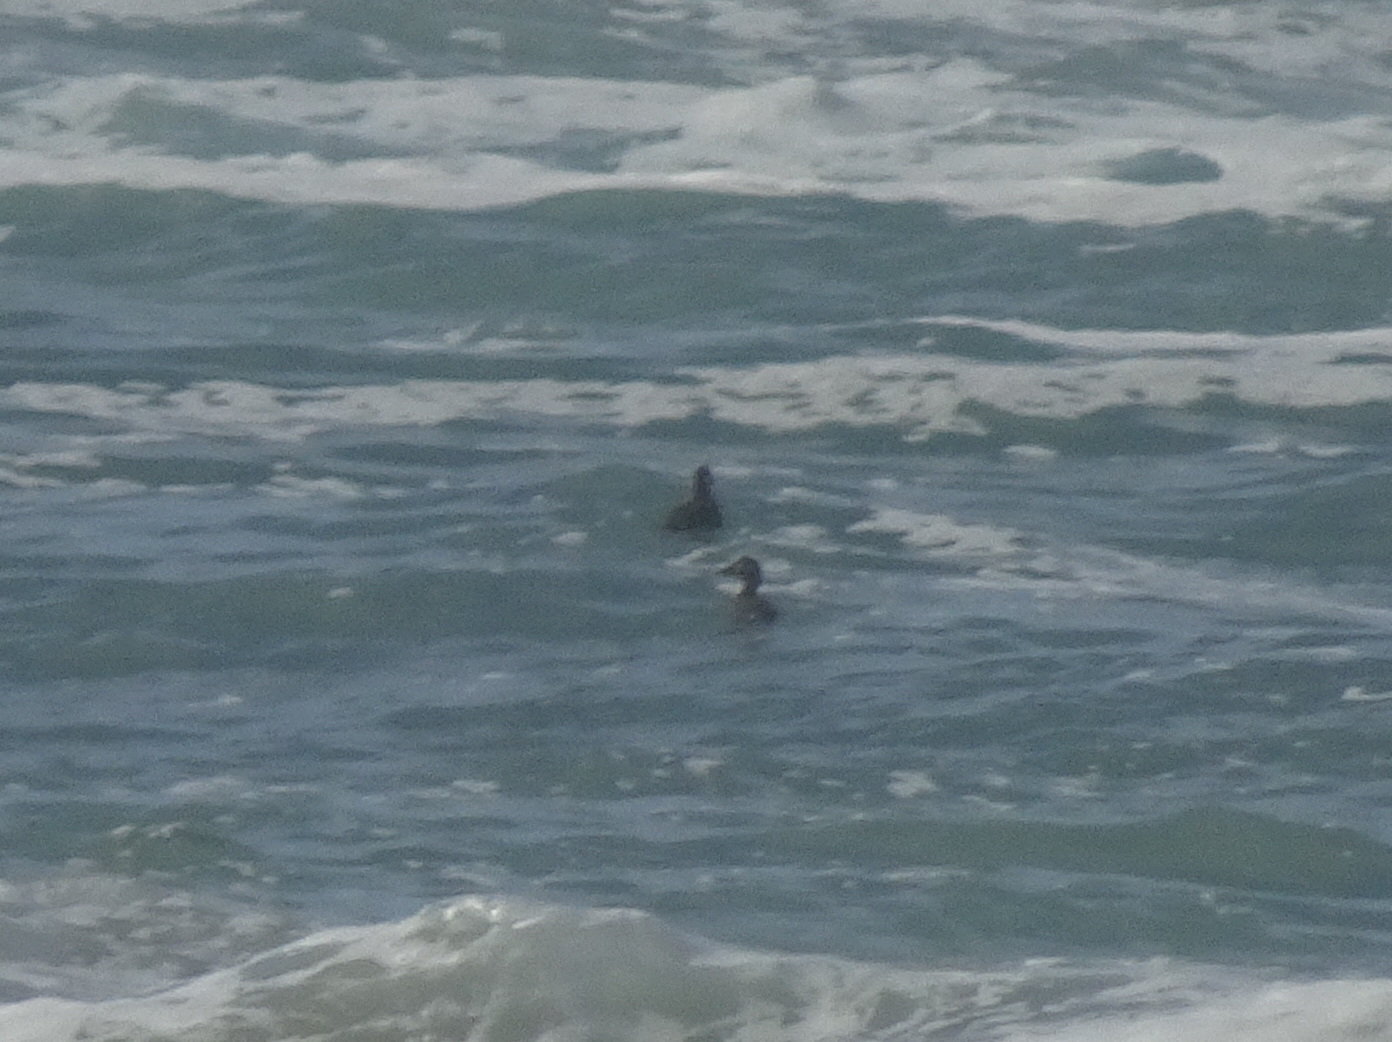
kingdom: Animalia
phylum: Chordata
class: Aves
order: Anseriformes
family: Anatidae
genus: Melanitta
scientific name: Melanitta perspicillata
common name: Surf scoter
